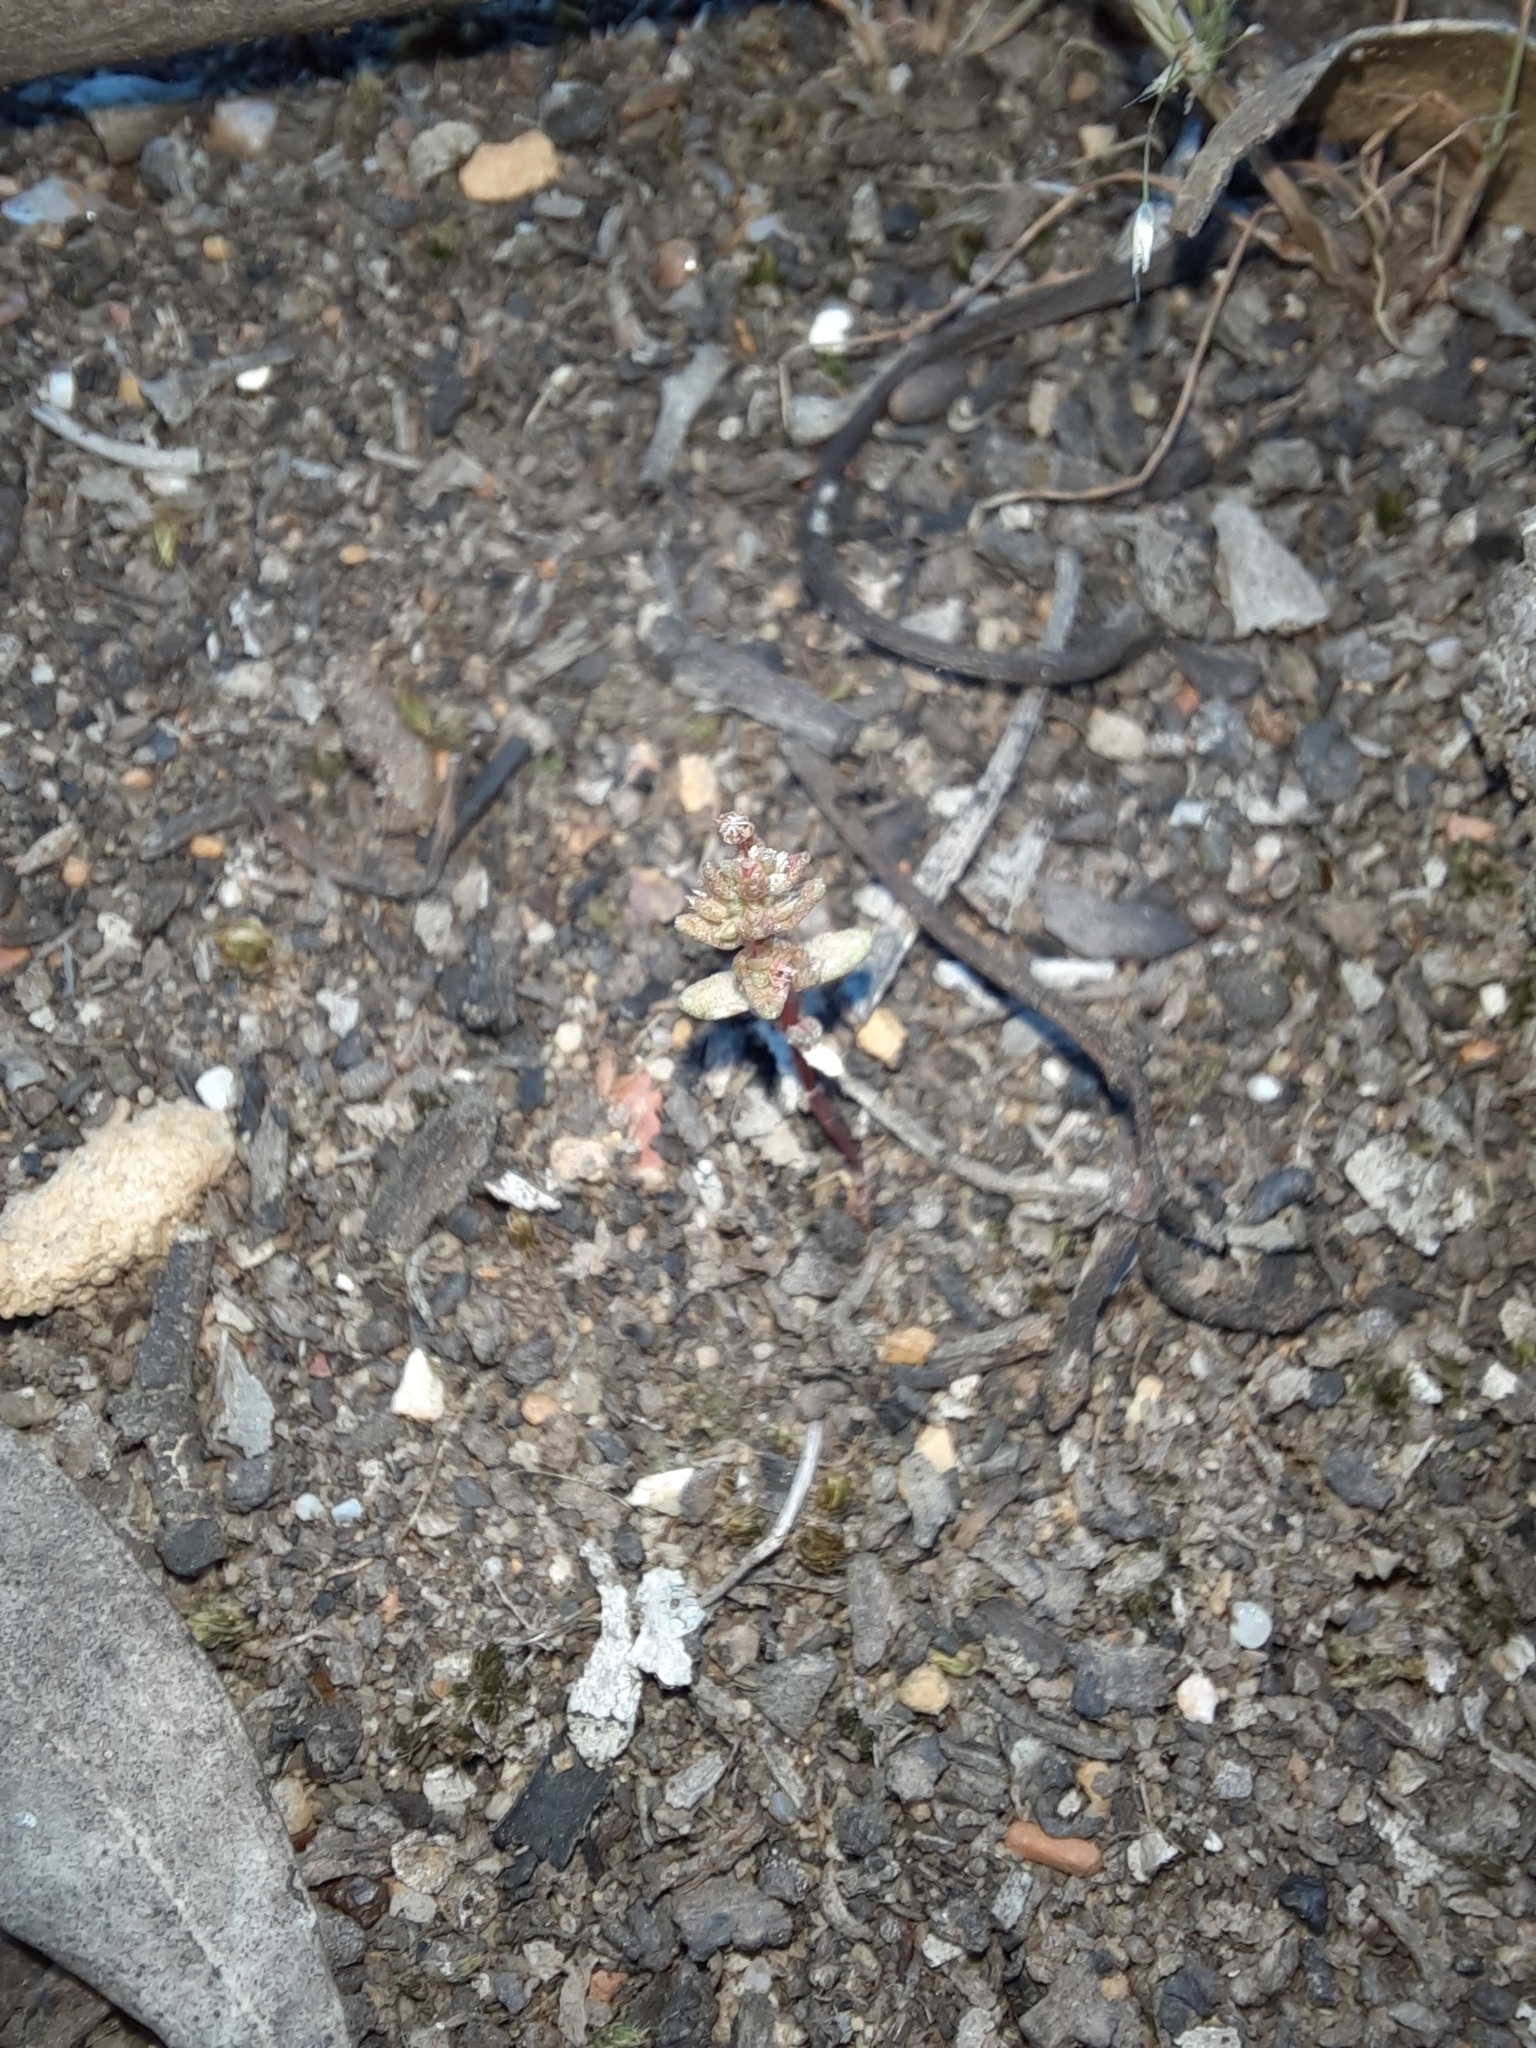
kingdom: Plantae
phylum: Tracheophyta
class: Magnoliopsida
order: Saxifragales
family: Crassulaceae
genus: Crassula
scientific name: Crassula sieberiana
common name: Siberian pygmyweed
